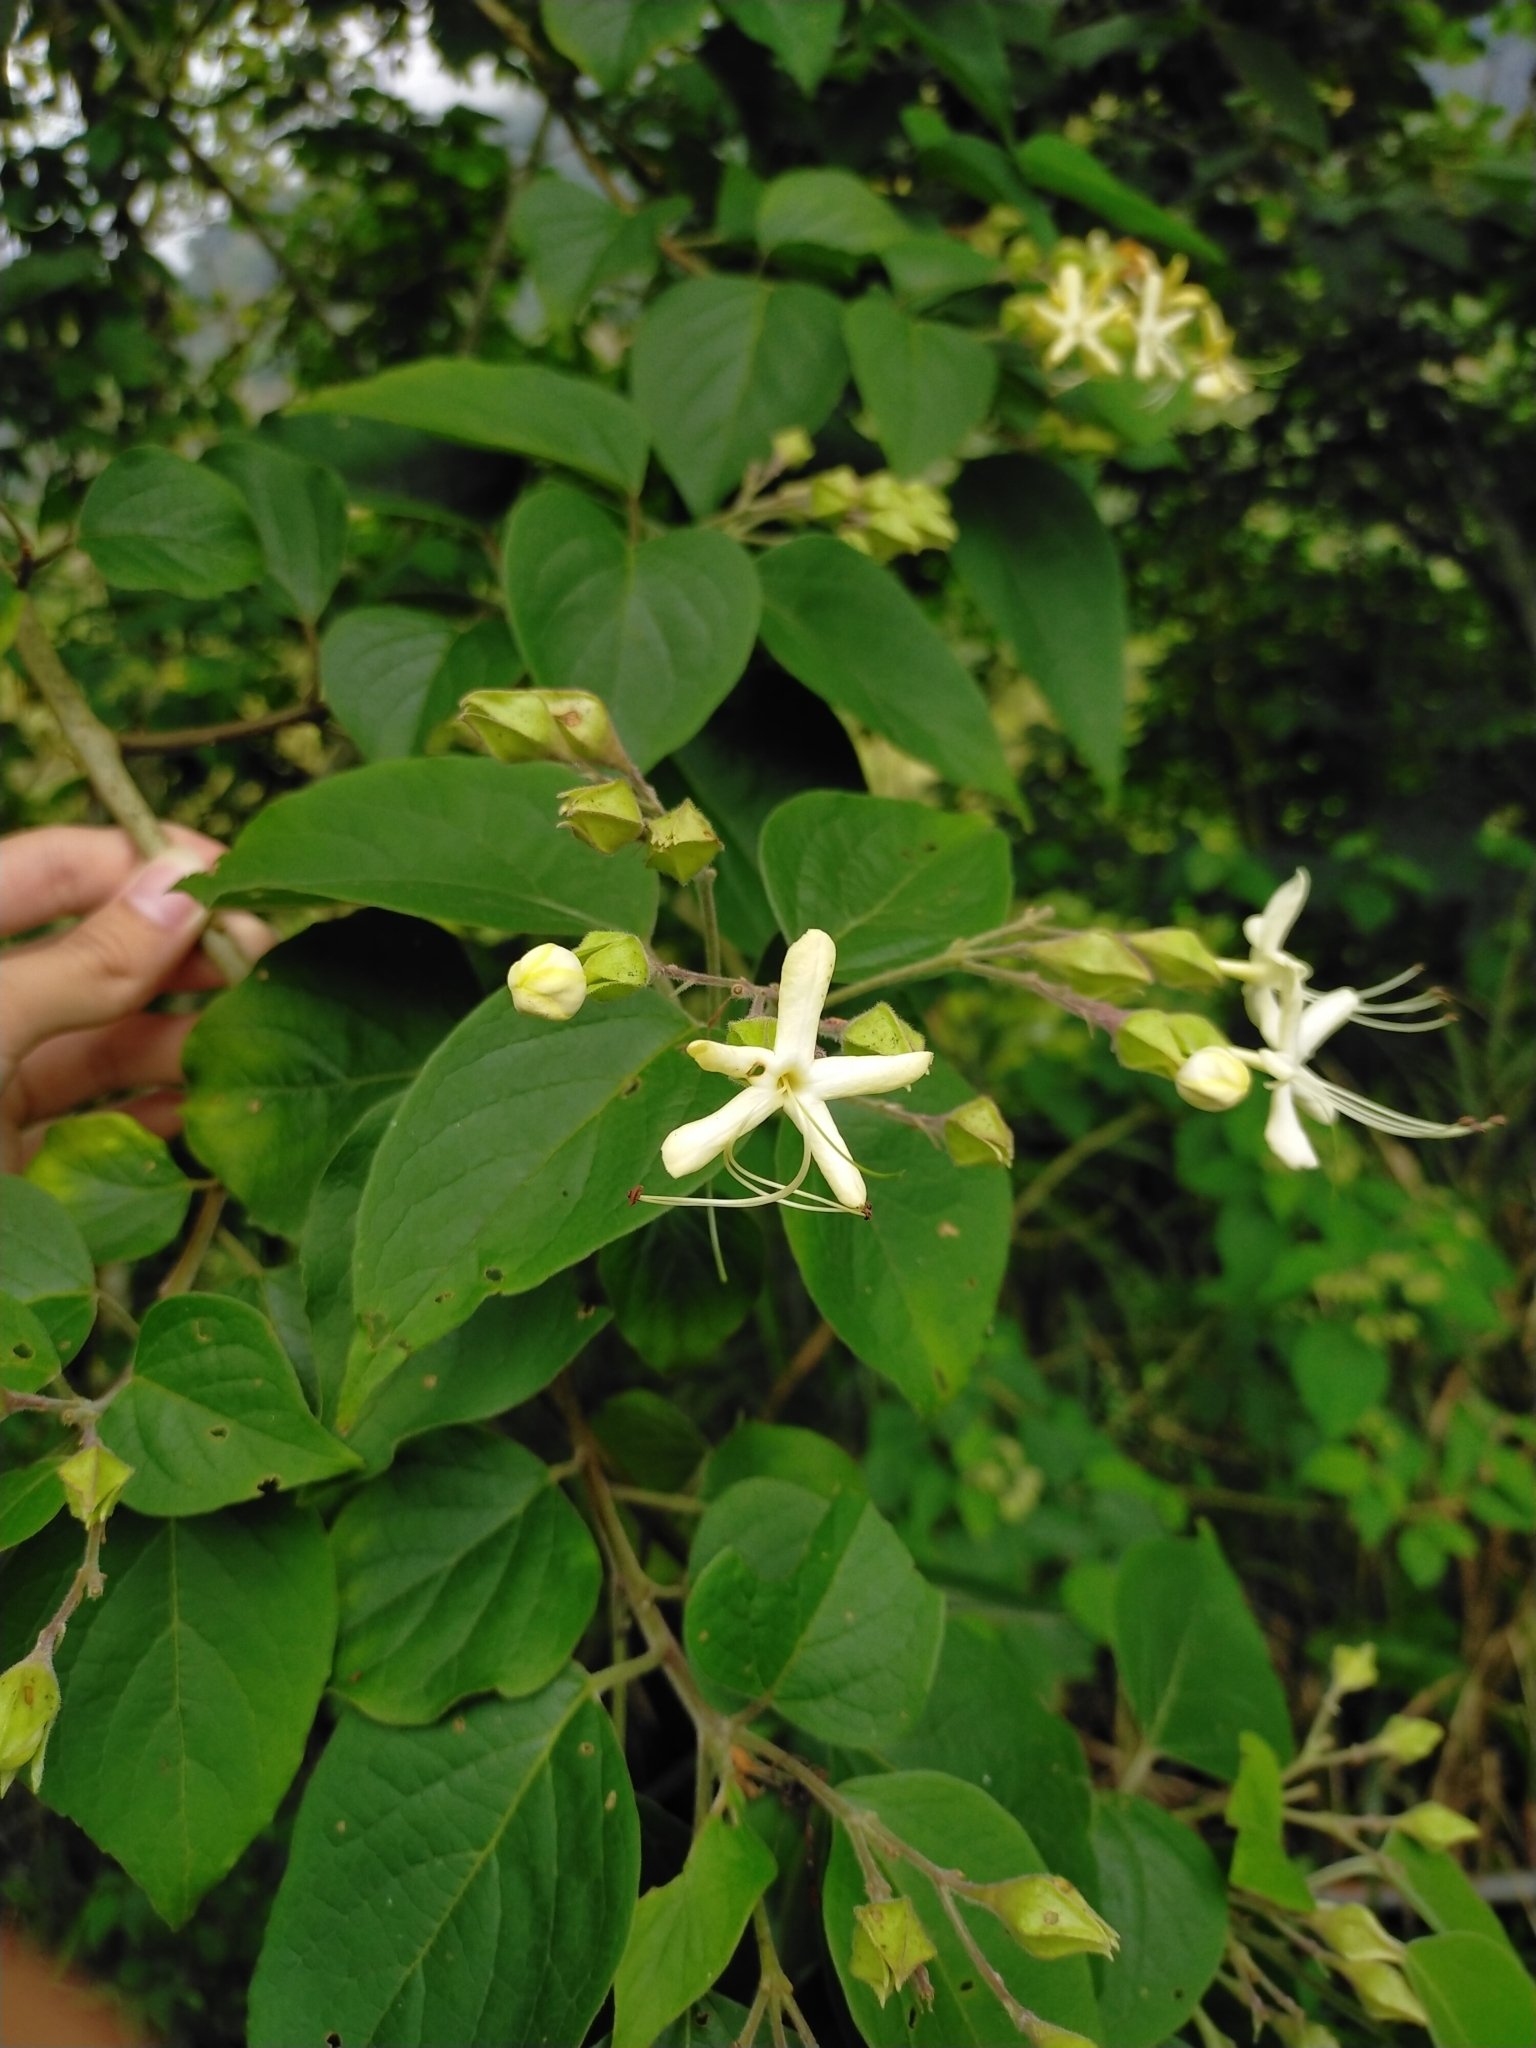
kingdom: Plantae
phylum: Tracheophyta
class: Magnoliopsida
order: Lamiales
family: Lamiaceae
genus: Clerodendrum
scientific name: Clerodendrum trichotomum
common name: Harlequin glorybower
